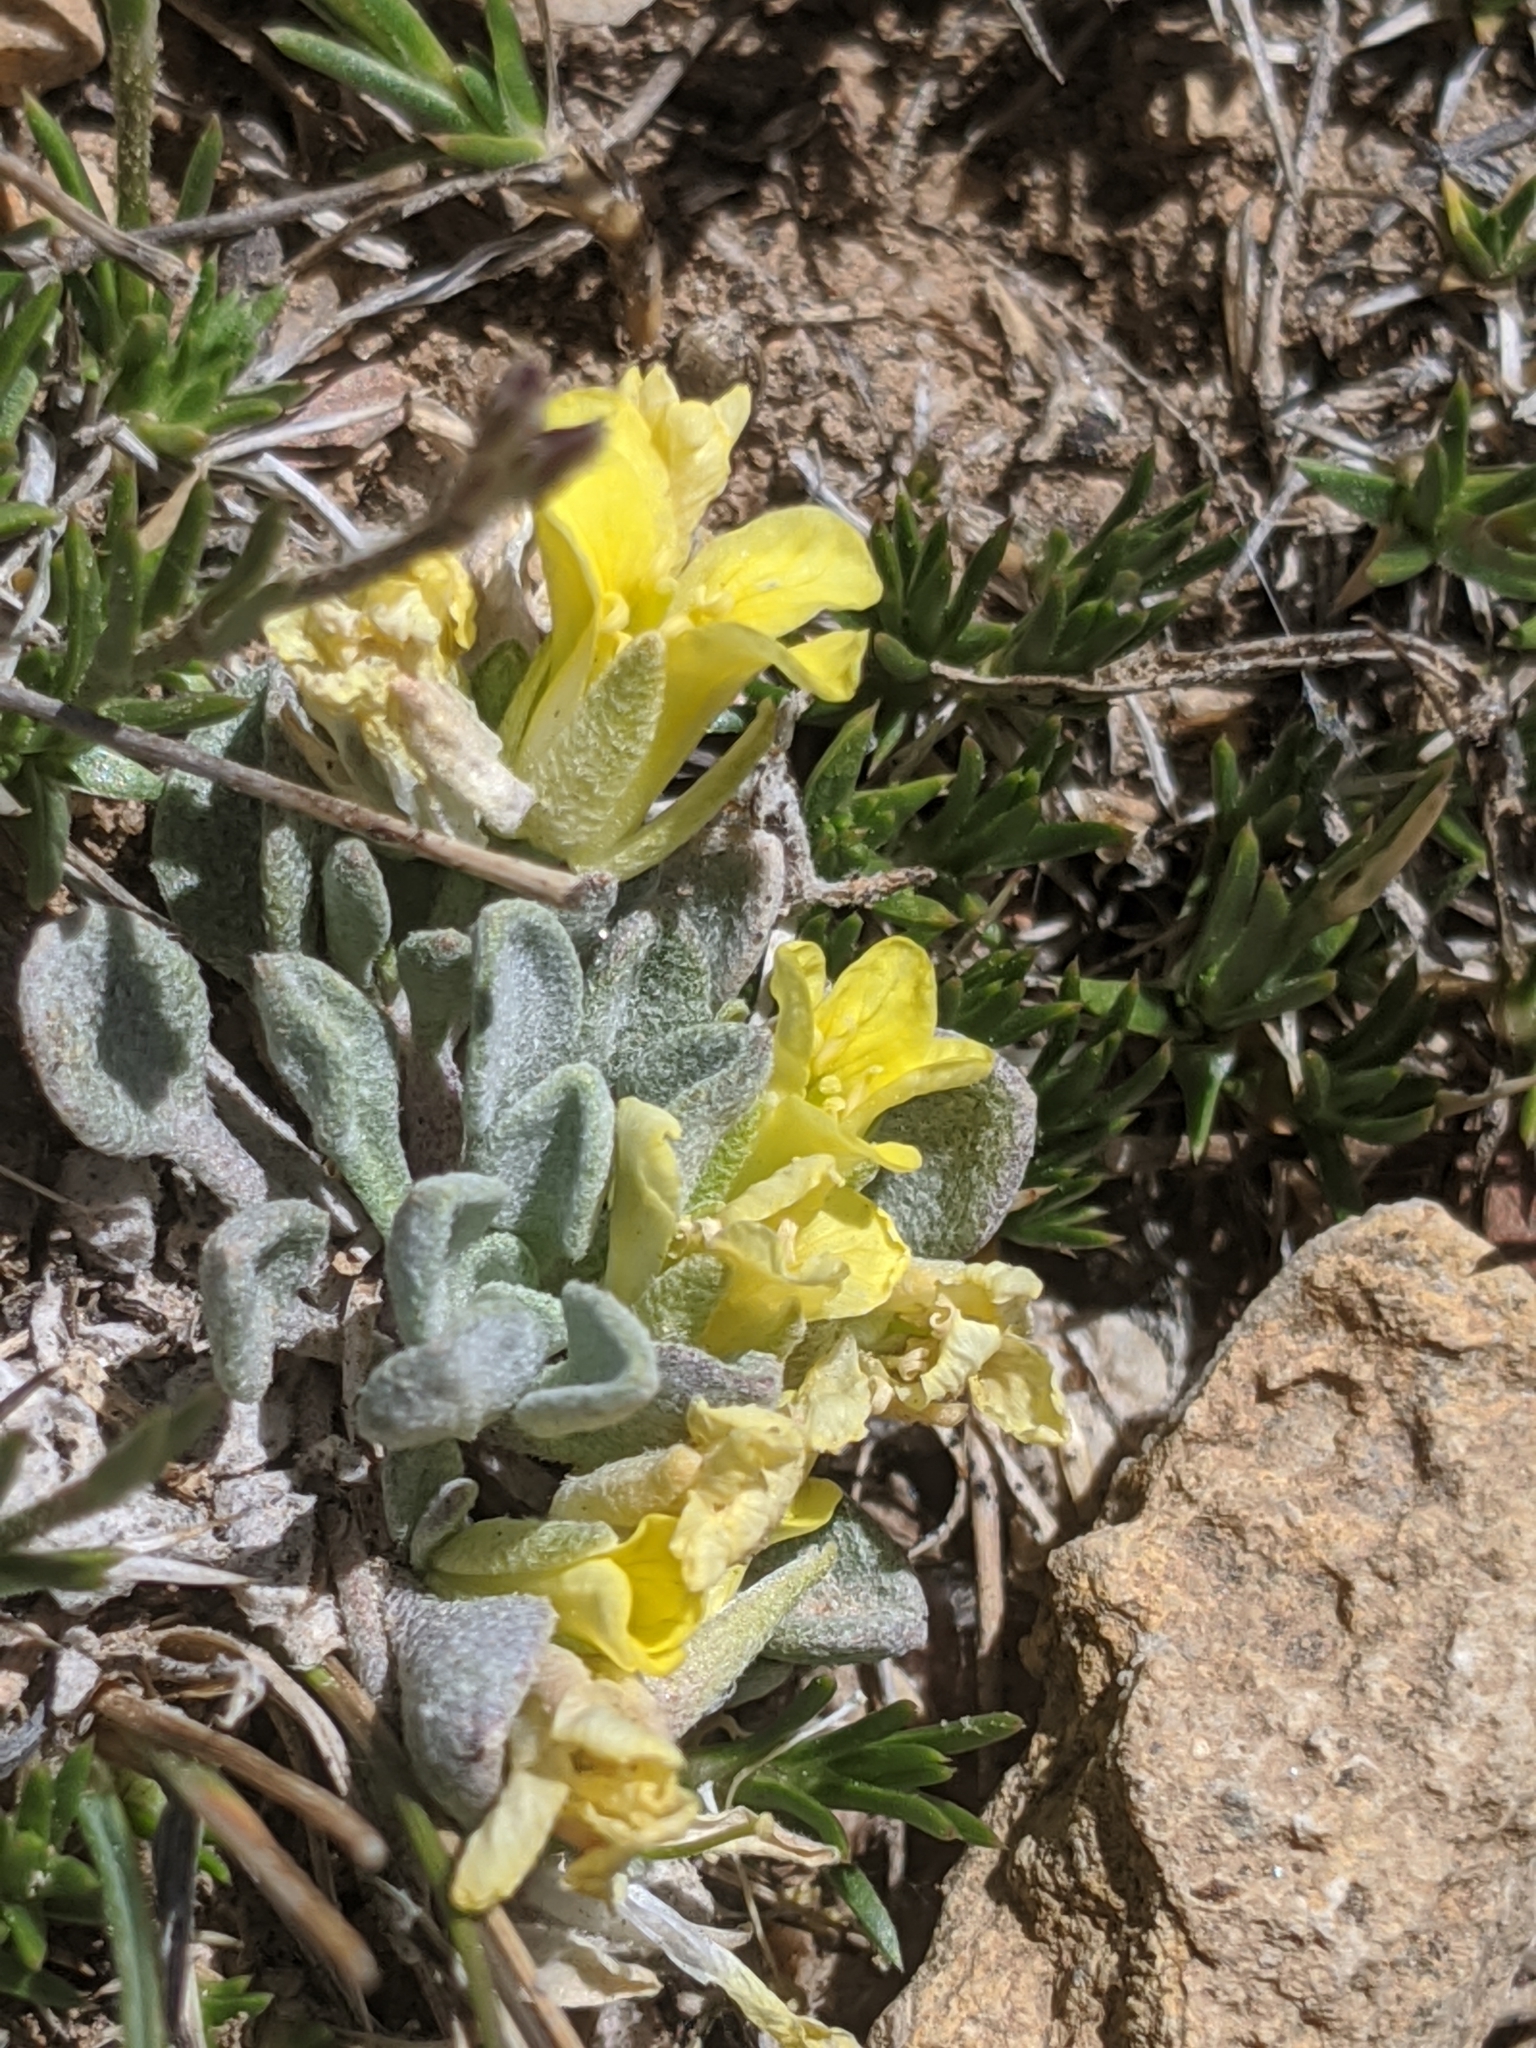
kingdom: Plantae
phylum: Tracheophyta
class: Magnoliopsida
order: Brassicales
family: Brassicaceae
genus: Physaria
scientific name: Physaria kingii
